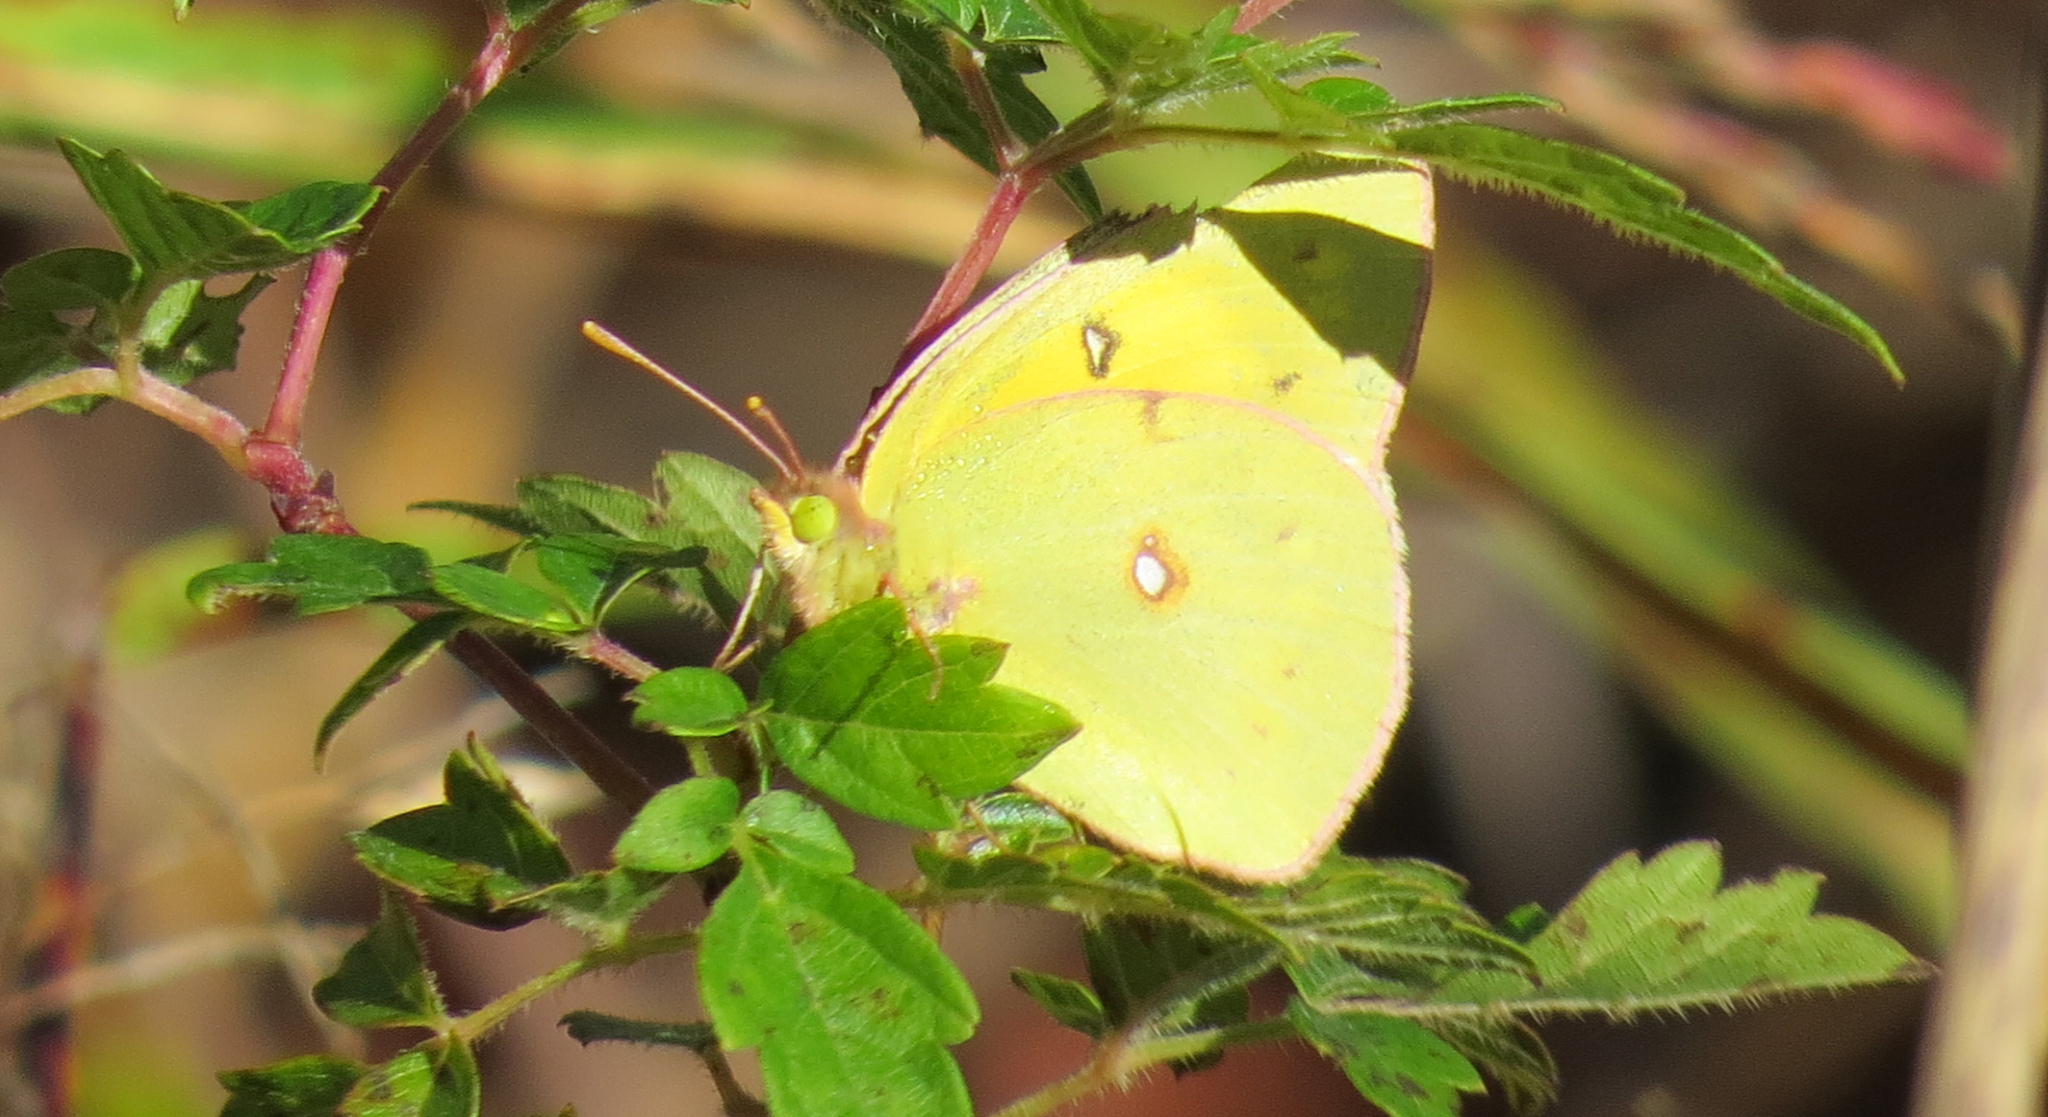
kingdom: Animalia
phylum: Arthropoda
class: Insecta
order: Lepidoptera
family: Pieridae
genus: Colias
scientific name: Colias eurytheme
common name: Alfalfa butterfly
